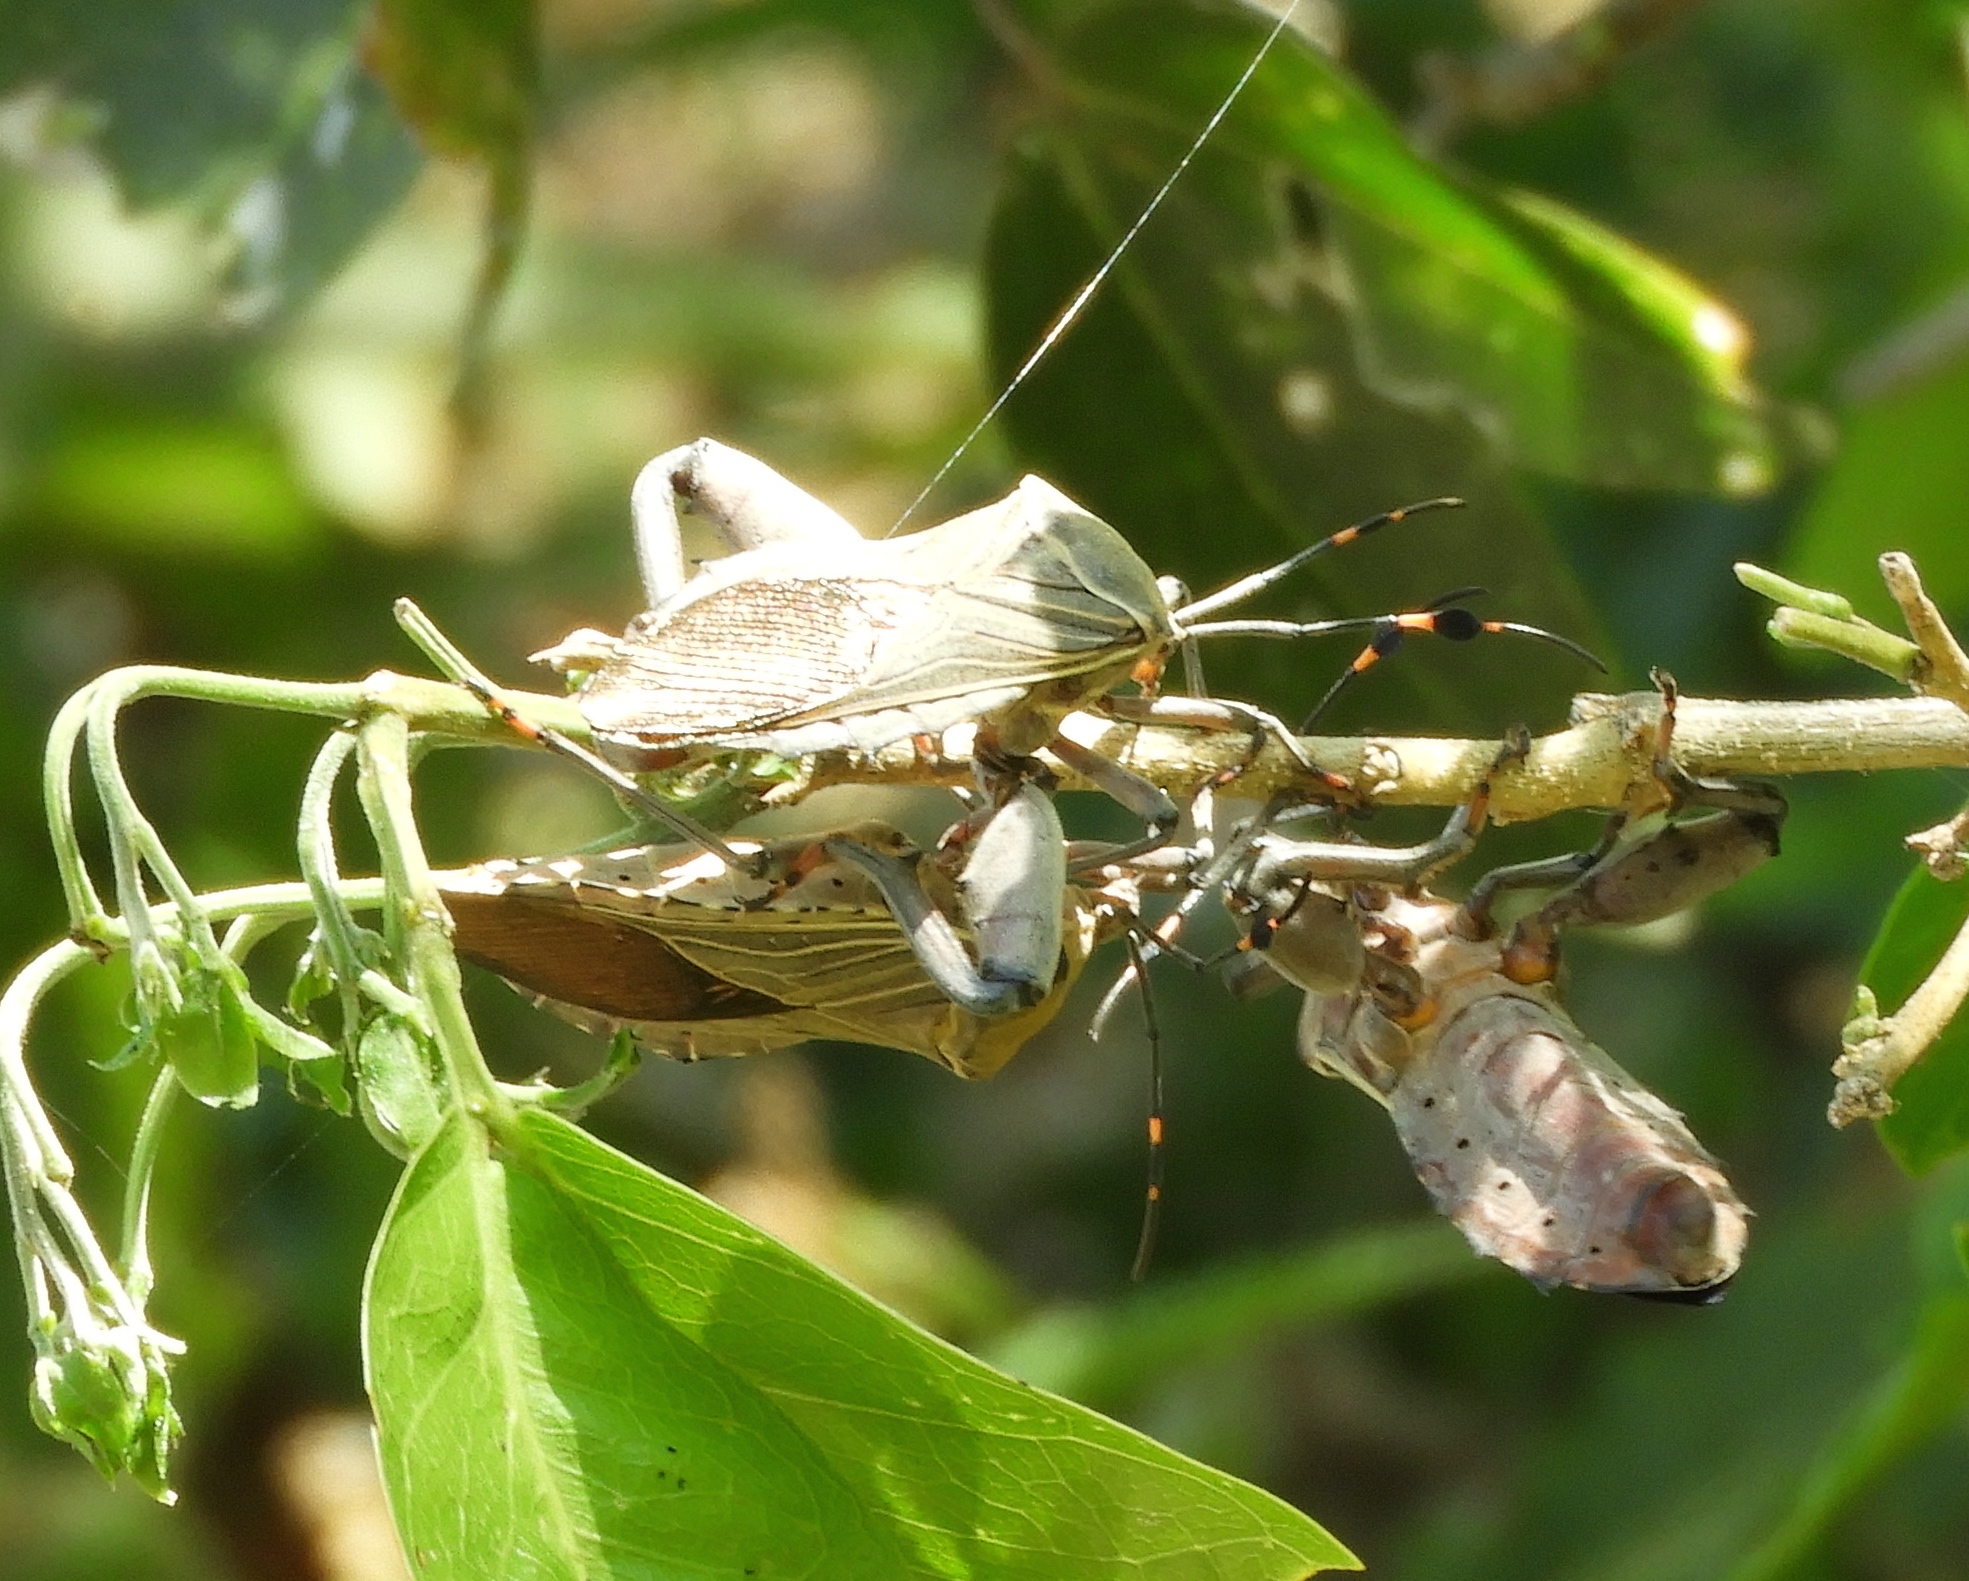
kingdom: Animalia
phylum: Arthropoda
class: Insecta
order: Hemiptera
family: Coreidae
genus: Pachylis
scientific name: Pachylis nervosus
